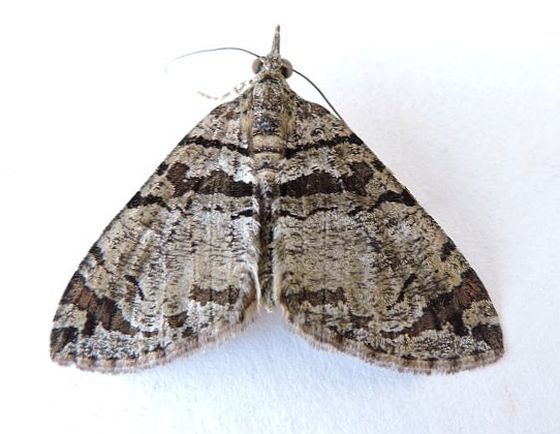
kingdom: Animalia
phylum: Arthropoda
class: Insecta
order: Lepidoptera
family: Geometridae
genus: Hydriomena
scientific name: Hydriomena barnesata
